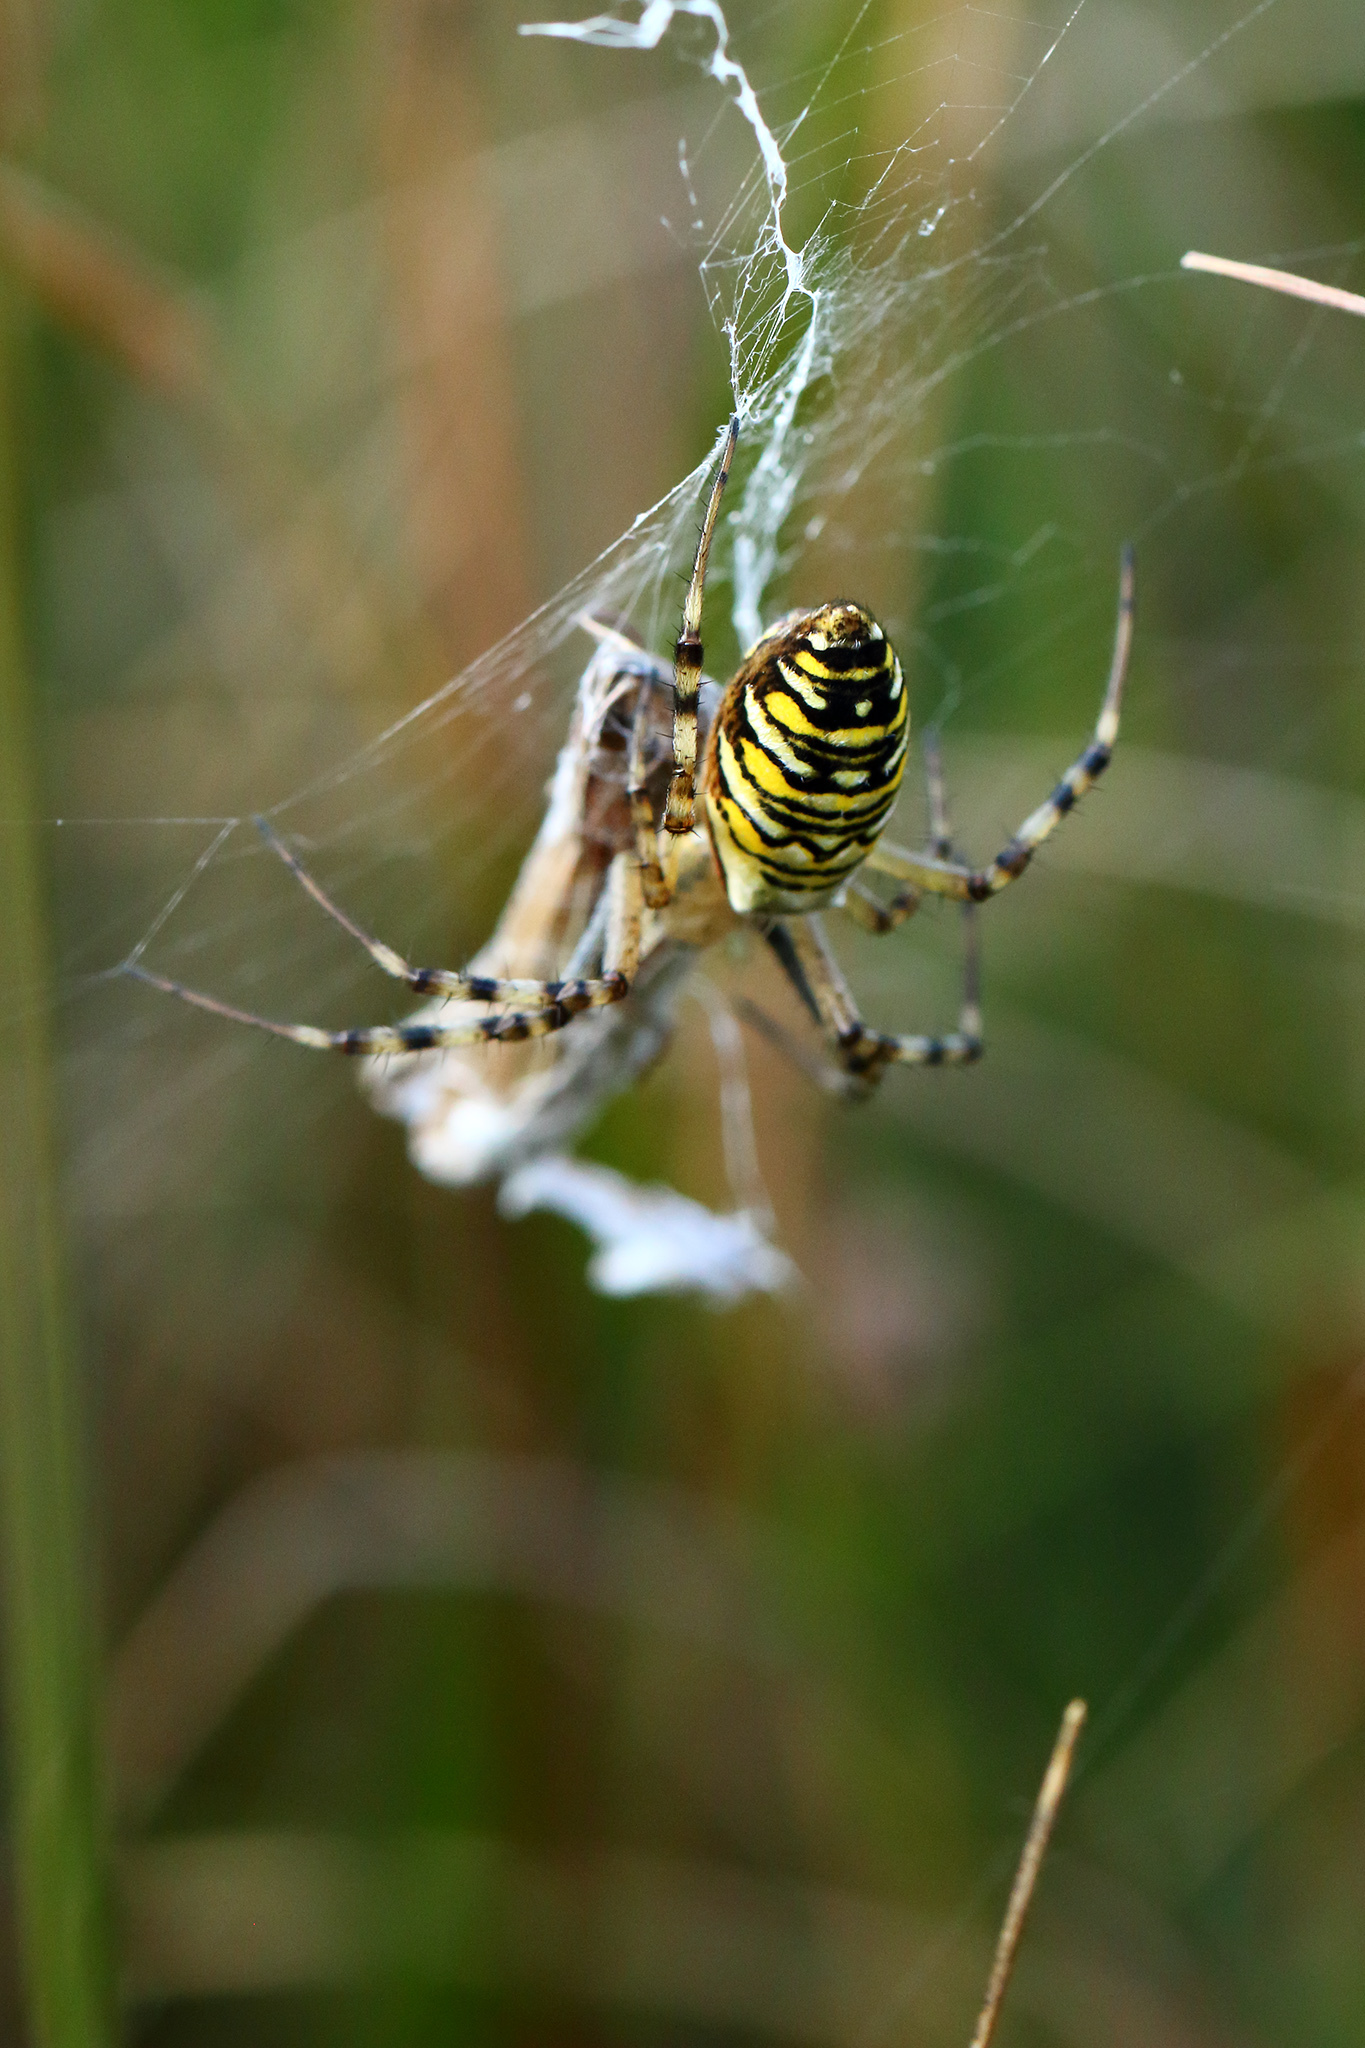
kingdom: Animalia
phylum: Arthropoda
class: Arachnida
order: Araneae
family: Araneidae
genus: Argiope
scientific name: Argiope bruennichi
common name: Wasp spider
